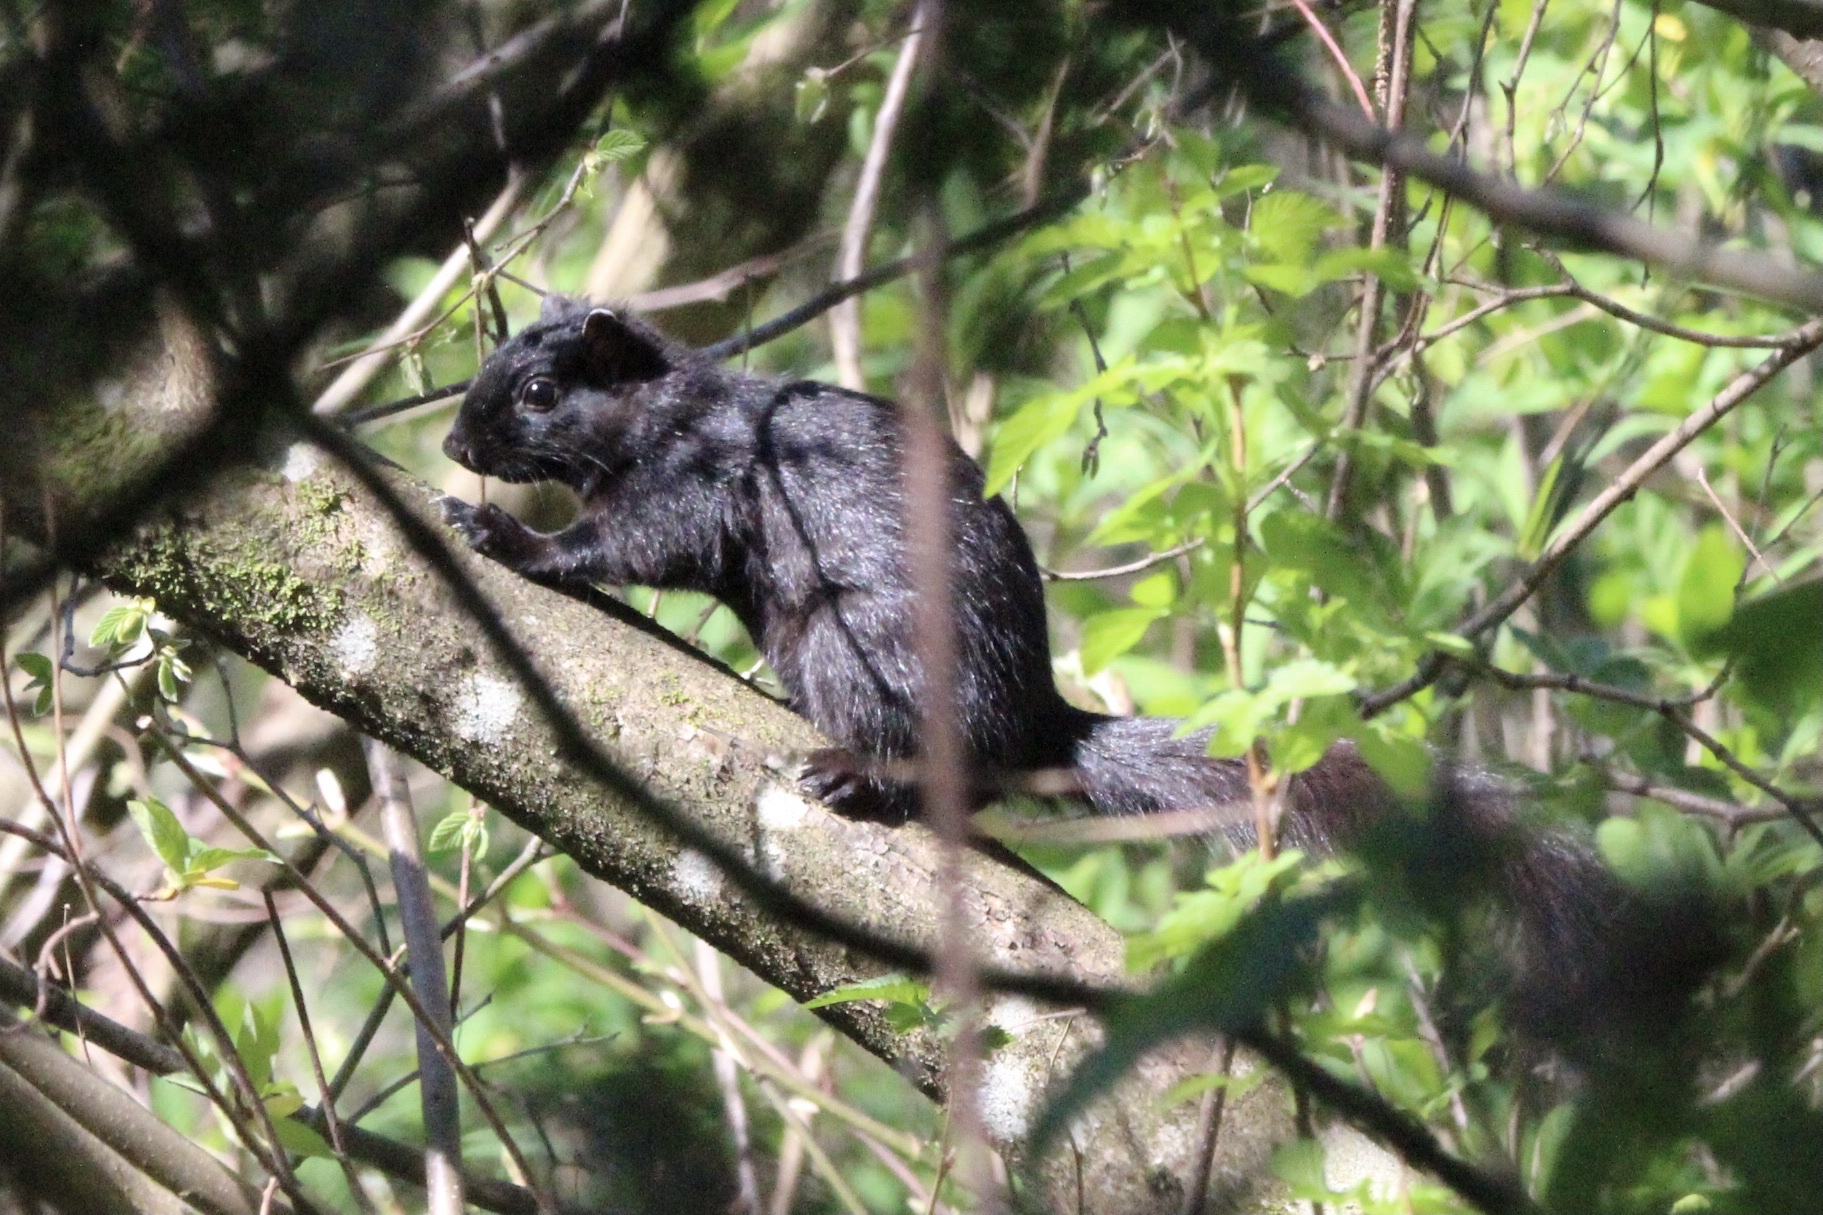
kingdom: Animalia
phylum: Chordata
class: Mammalia
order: Rodentia
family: Sciuridae
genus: Sciurus
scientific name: Sciurus carolinensis
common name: Eastern gray squirrel
